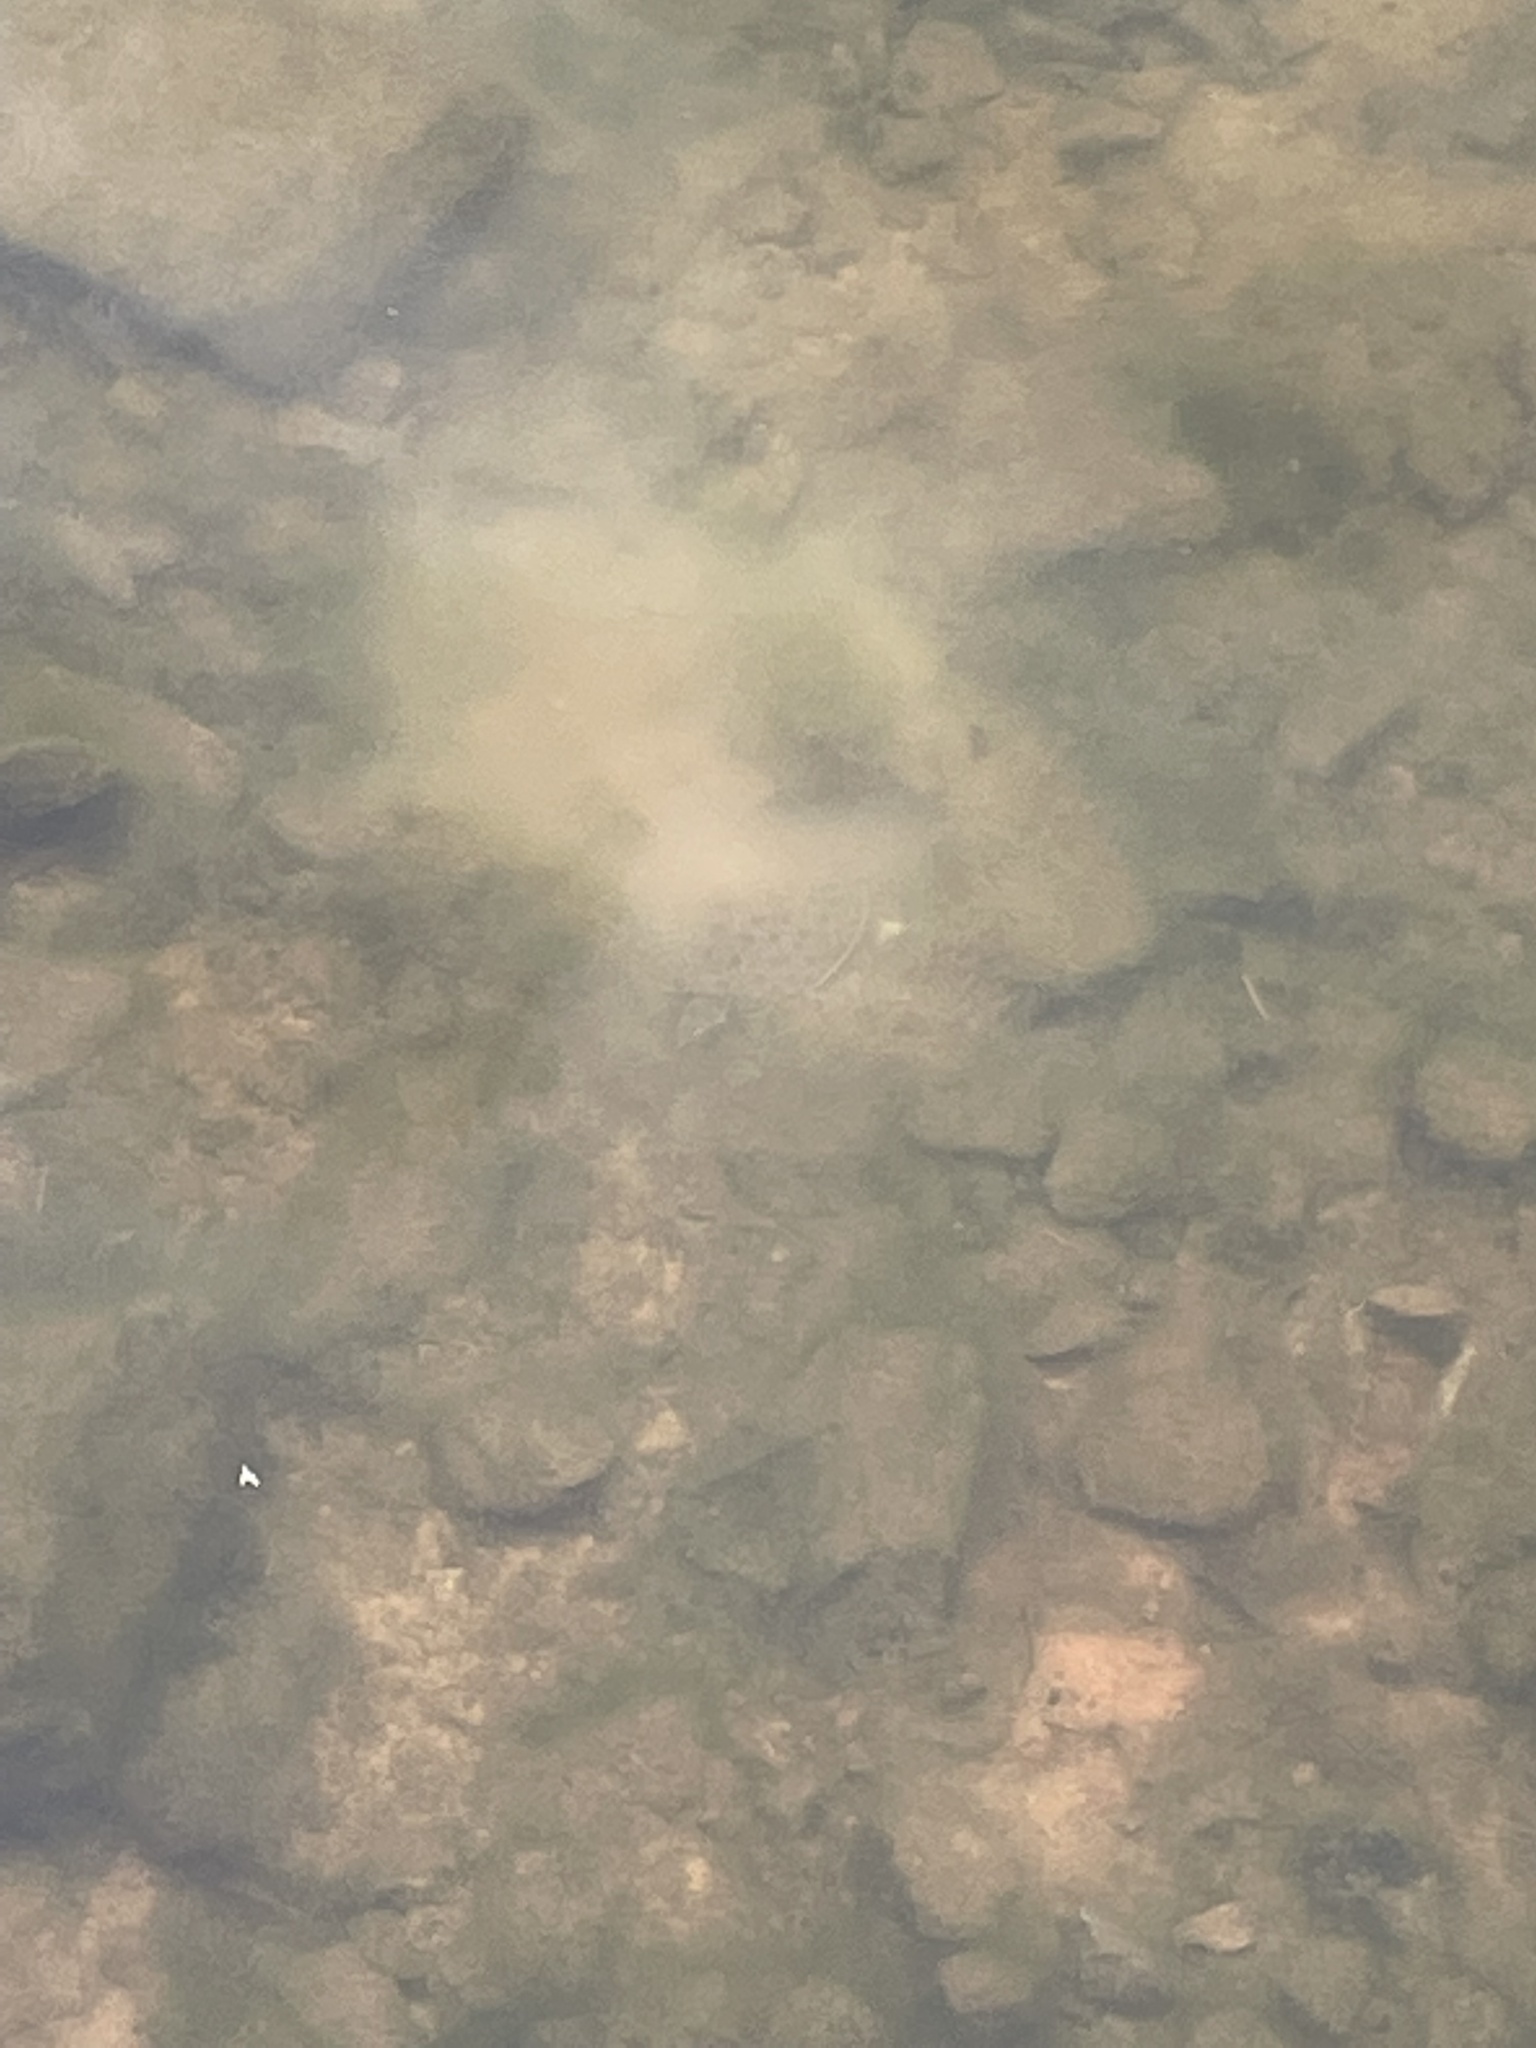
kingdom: Animalia
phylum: Chordata
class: Testudines
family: Trionychidae
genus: Apalone
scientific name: Apalone spinifera
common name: Spiny softshell turtle
